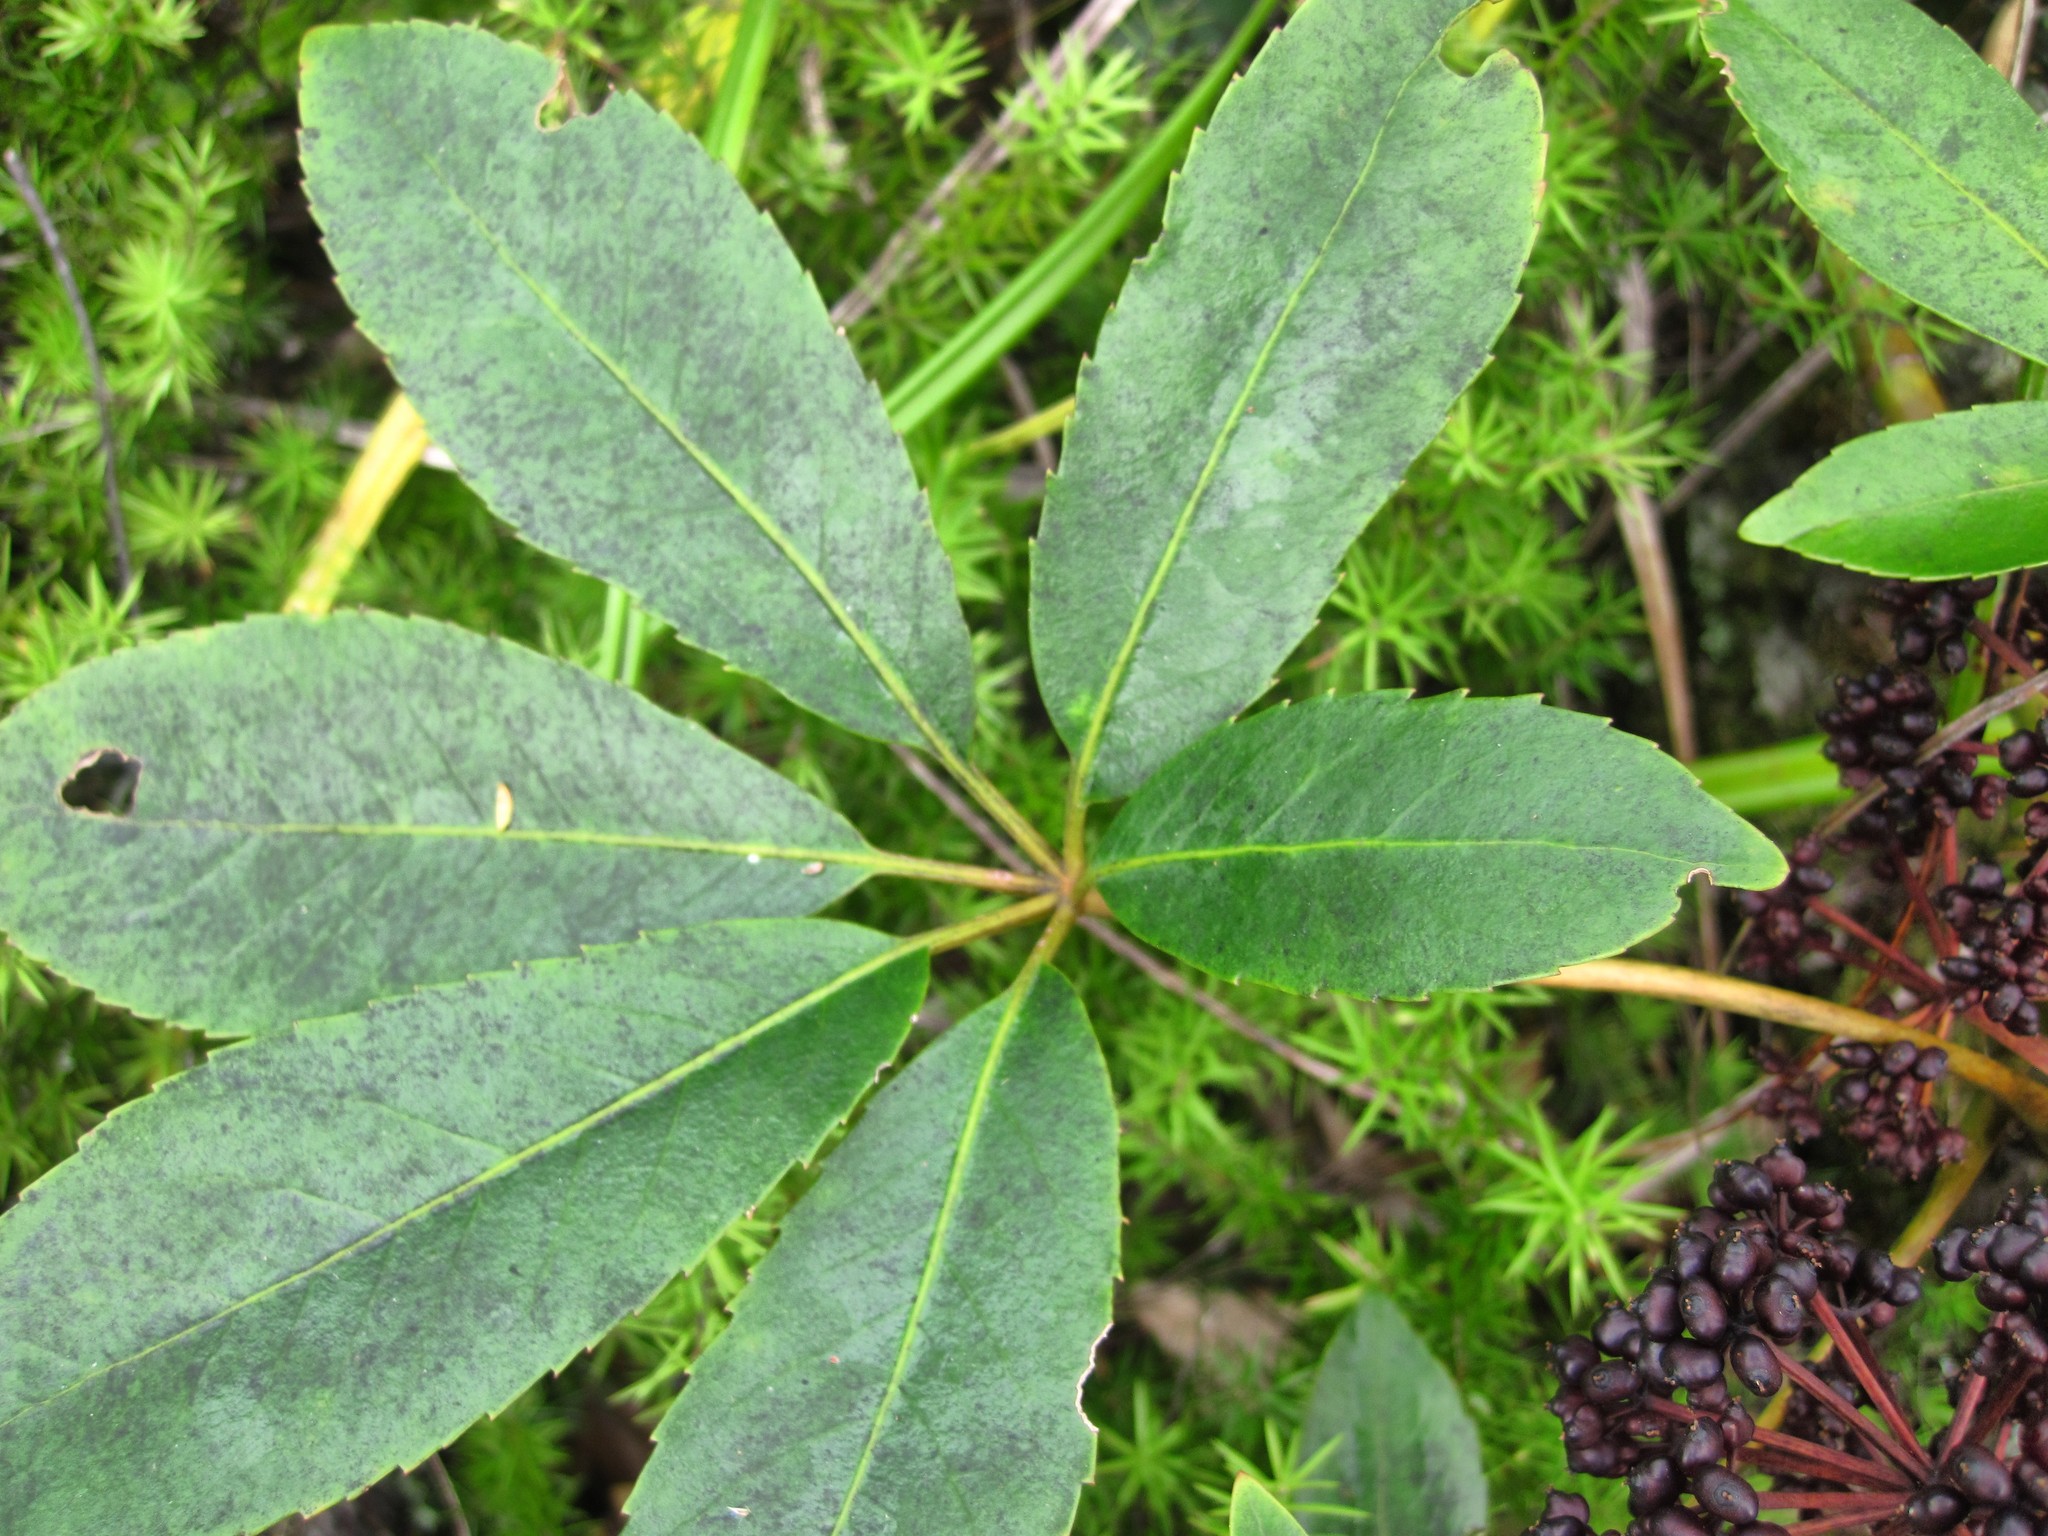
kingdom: Plantae
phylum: Tracheophyta
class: Magnoliopsida
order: Apiales
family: Araliaceae
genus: Neopanax
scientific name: Neopanax arboreus
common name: Five-fingers
